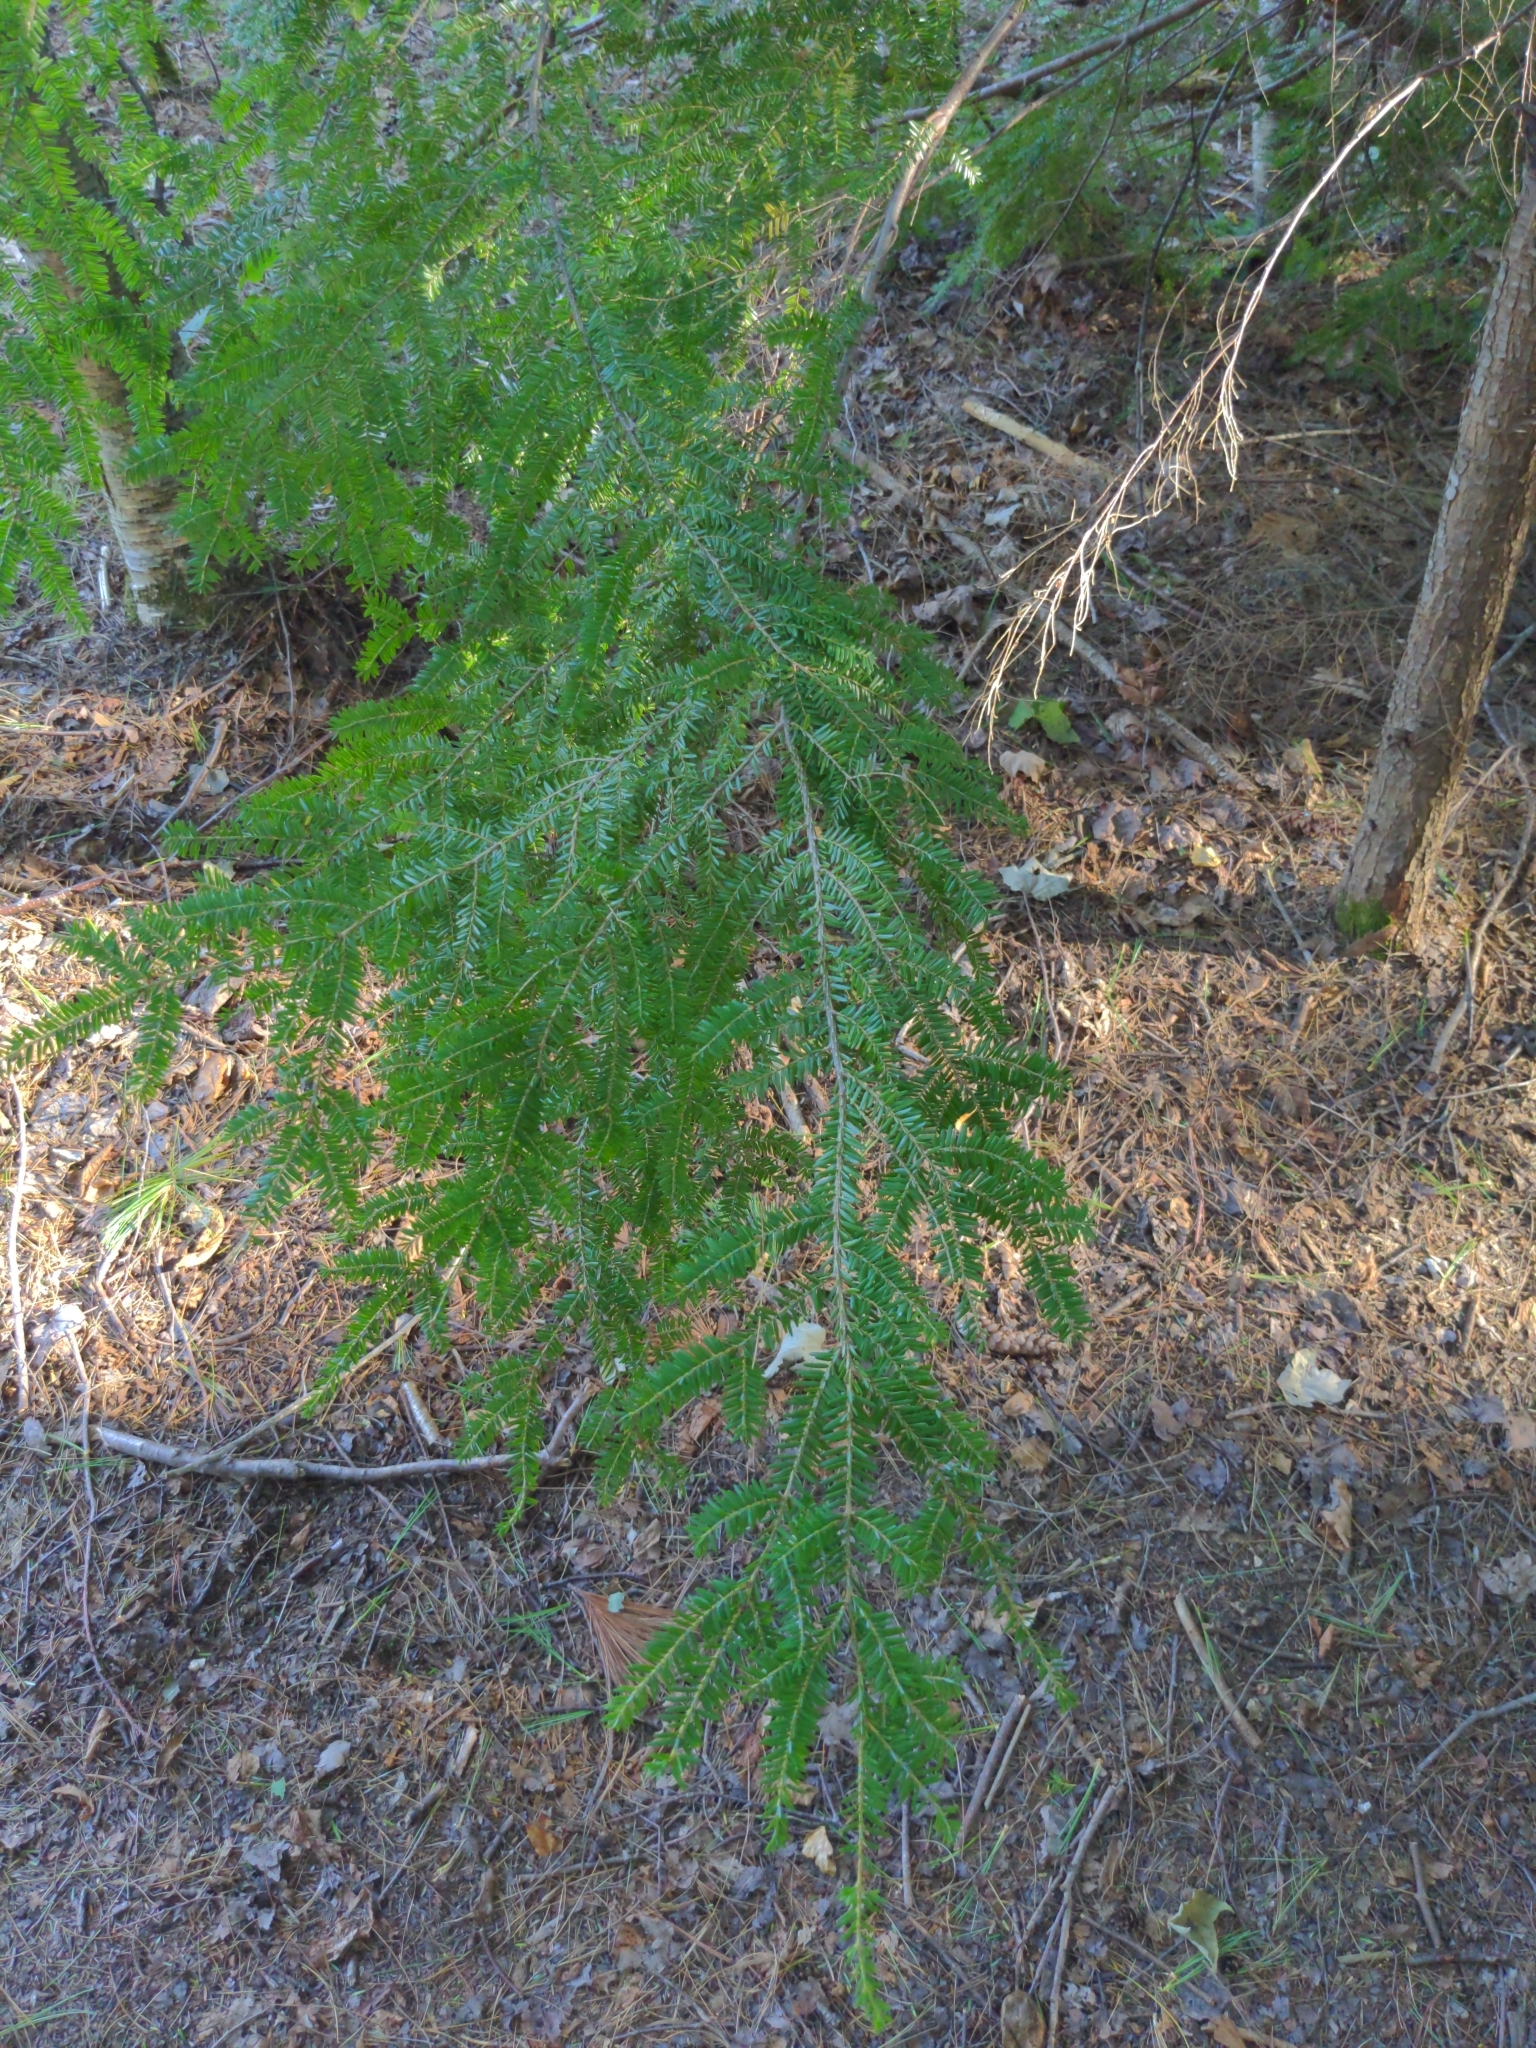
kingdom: Plantae
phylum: Tracheophyta
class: Pinopsida
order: Pinales
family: Pinaceae
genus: Tsuga
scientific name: Tsuga canadensis
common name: Eastern hemlock
